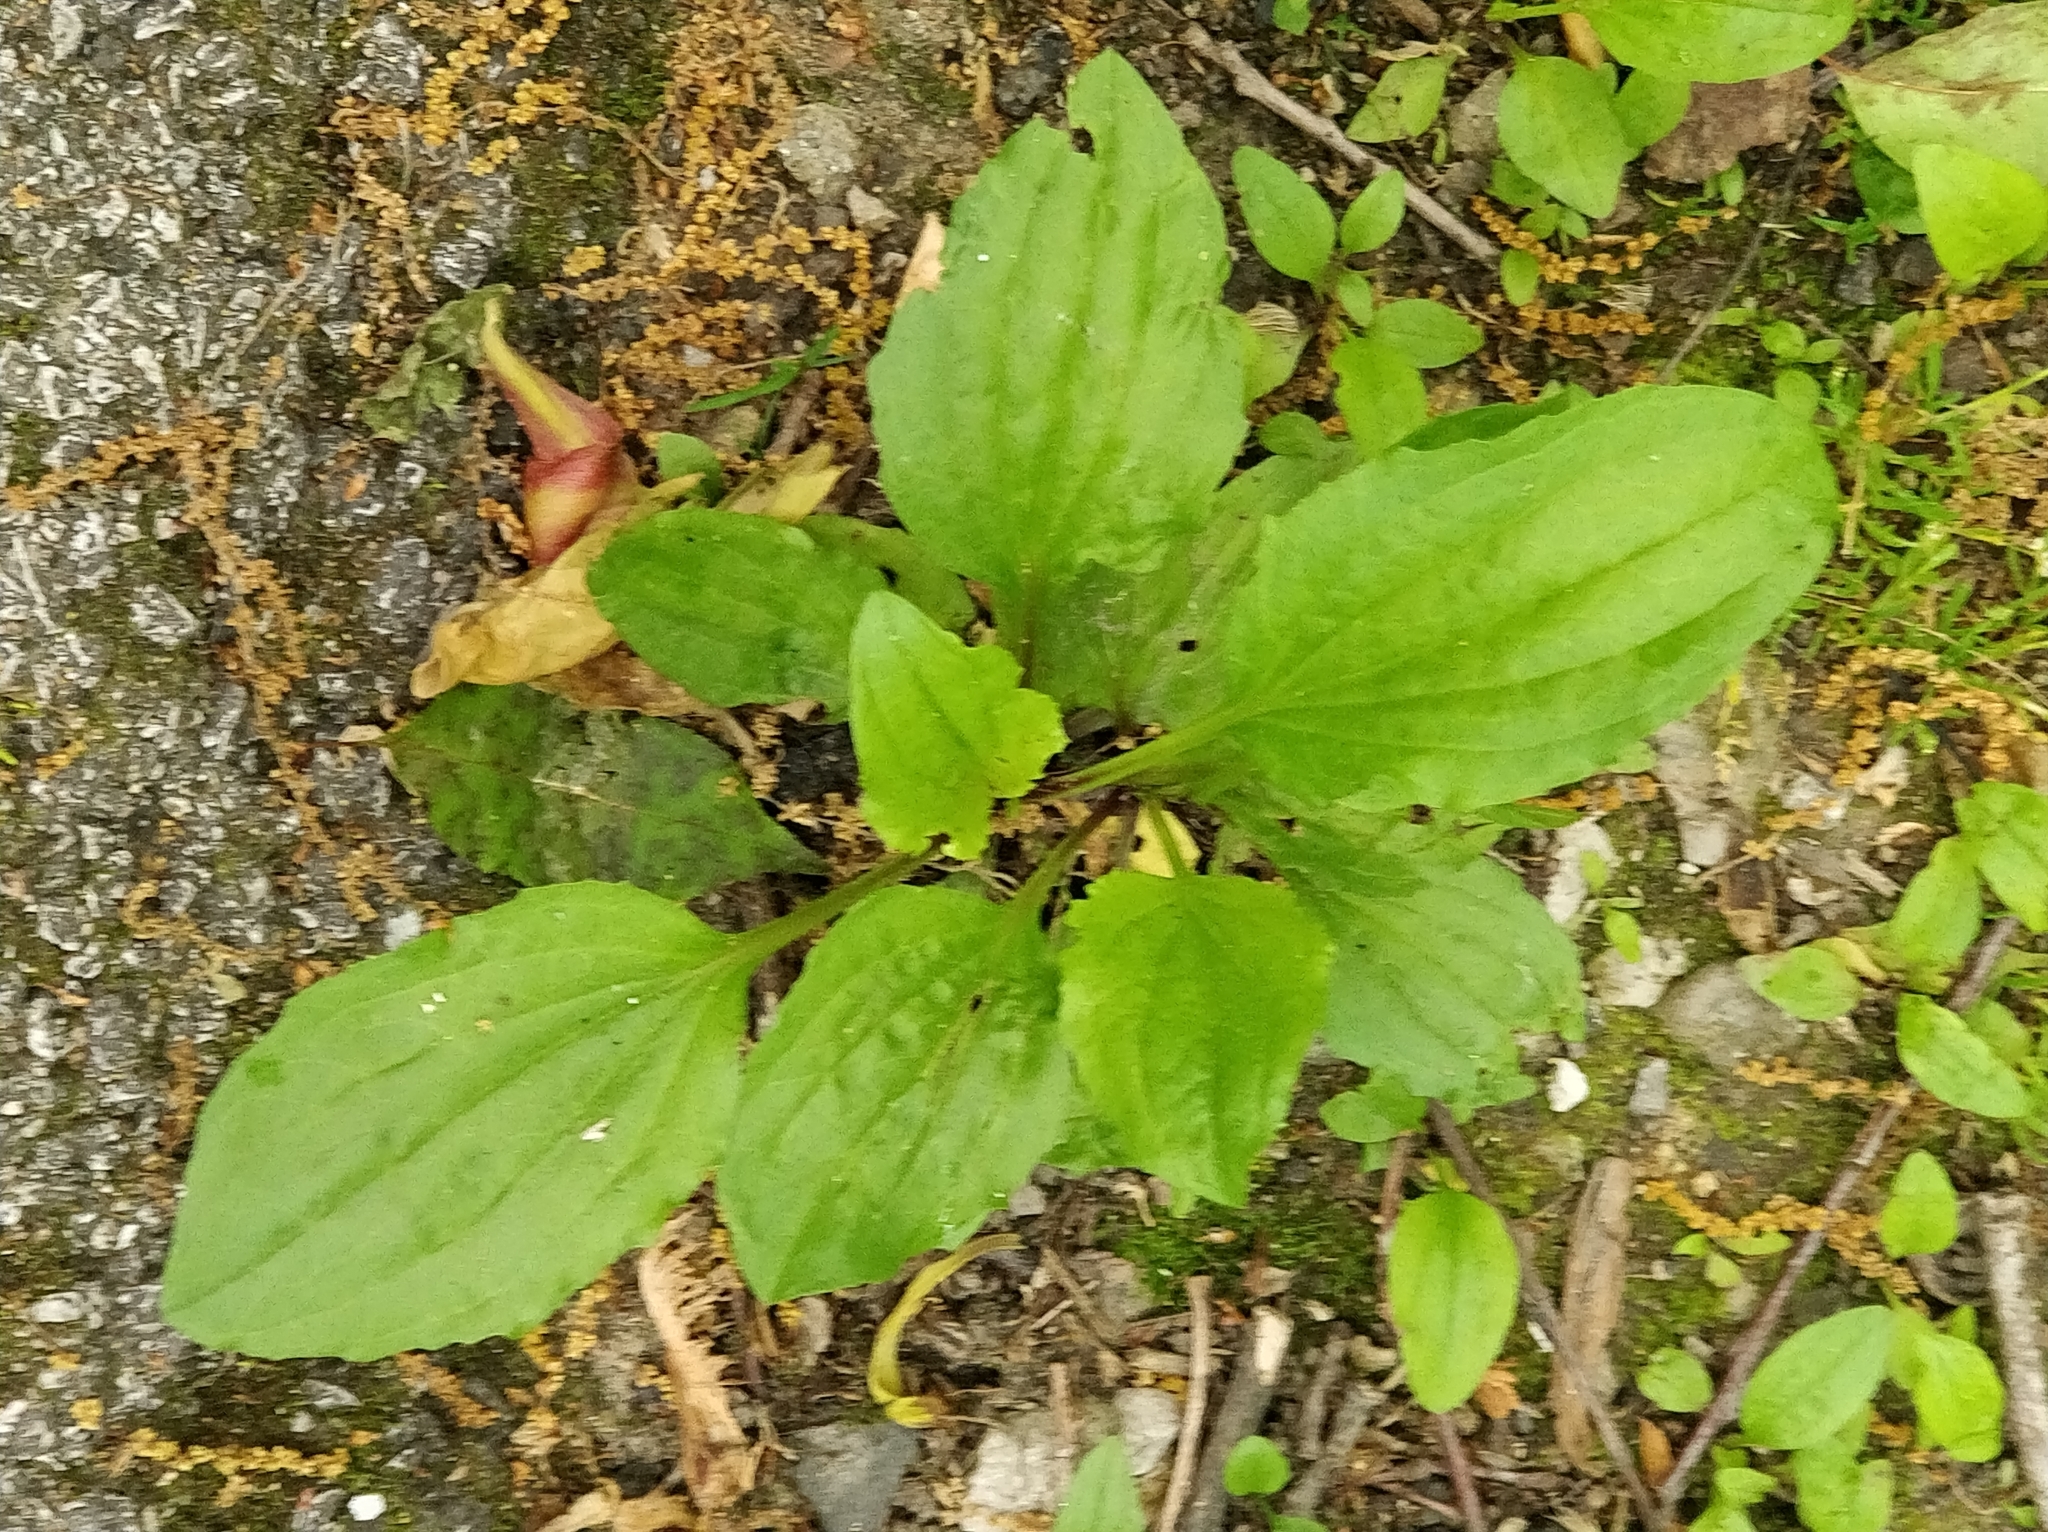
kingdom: Plantae
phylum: Tracheophyta
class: Magnoliopsida
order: Lamiales
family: Plantaginaceae
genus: Plantago
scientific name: Plantago rugelii
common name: American plantain
